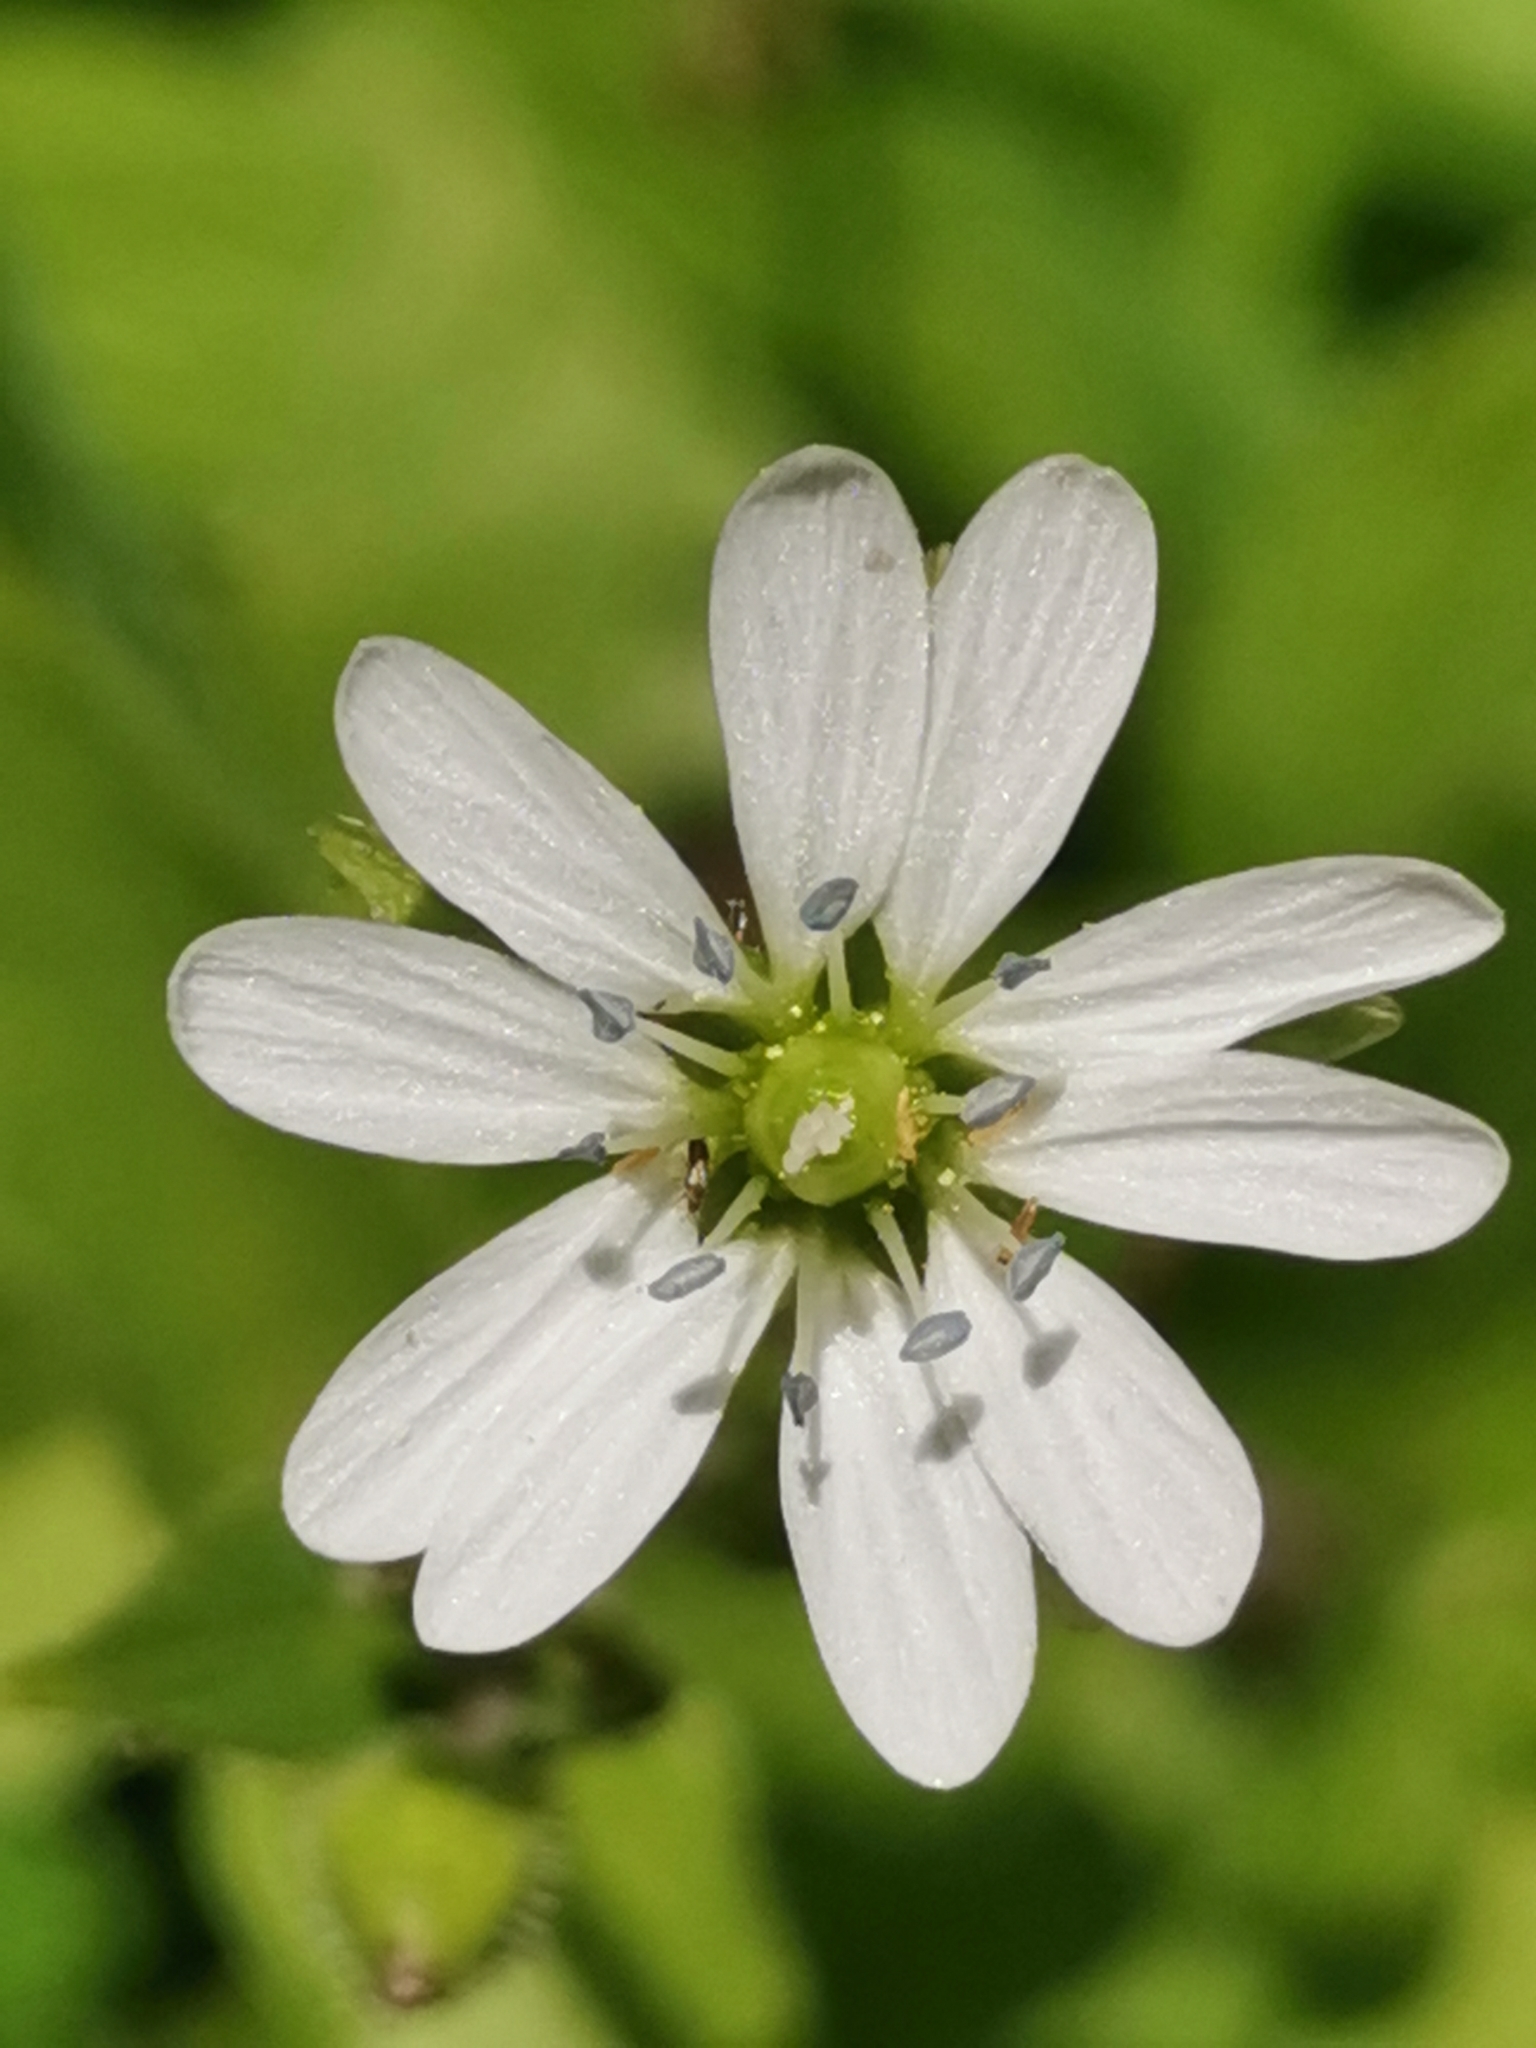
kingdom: Plantae
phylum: Tracheophyta
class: Magnoliopsida
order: Caryophyllales
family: Caryophyllaceae
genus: Stellaria
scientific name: Stellaria aquatica
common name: Water chickweed
